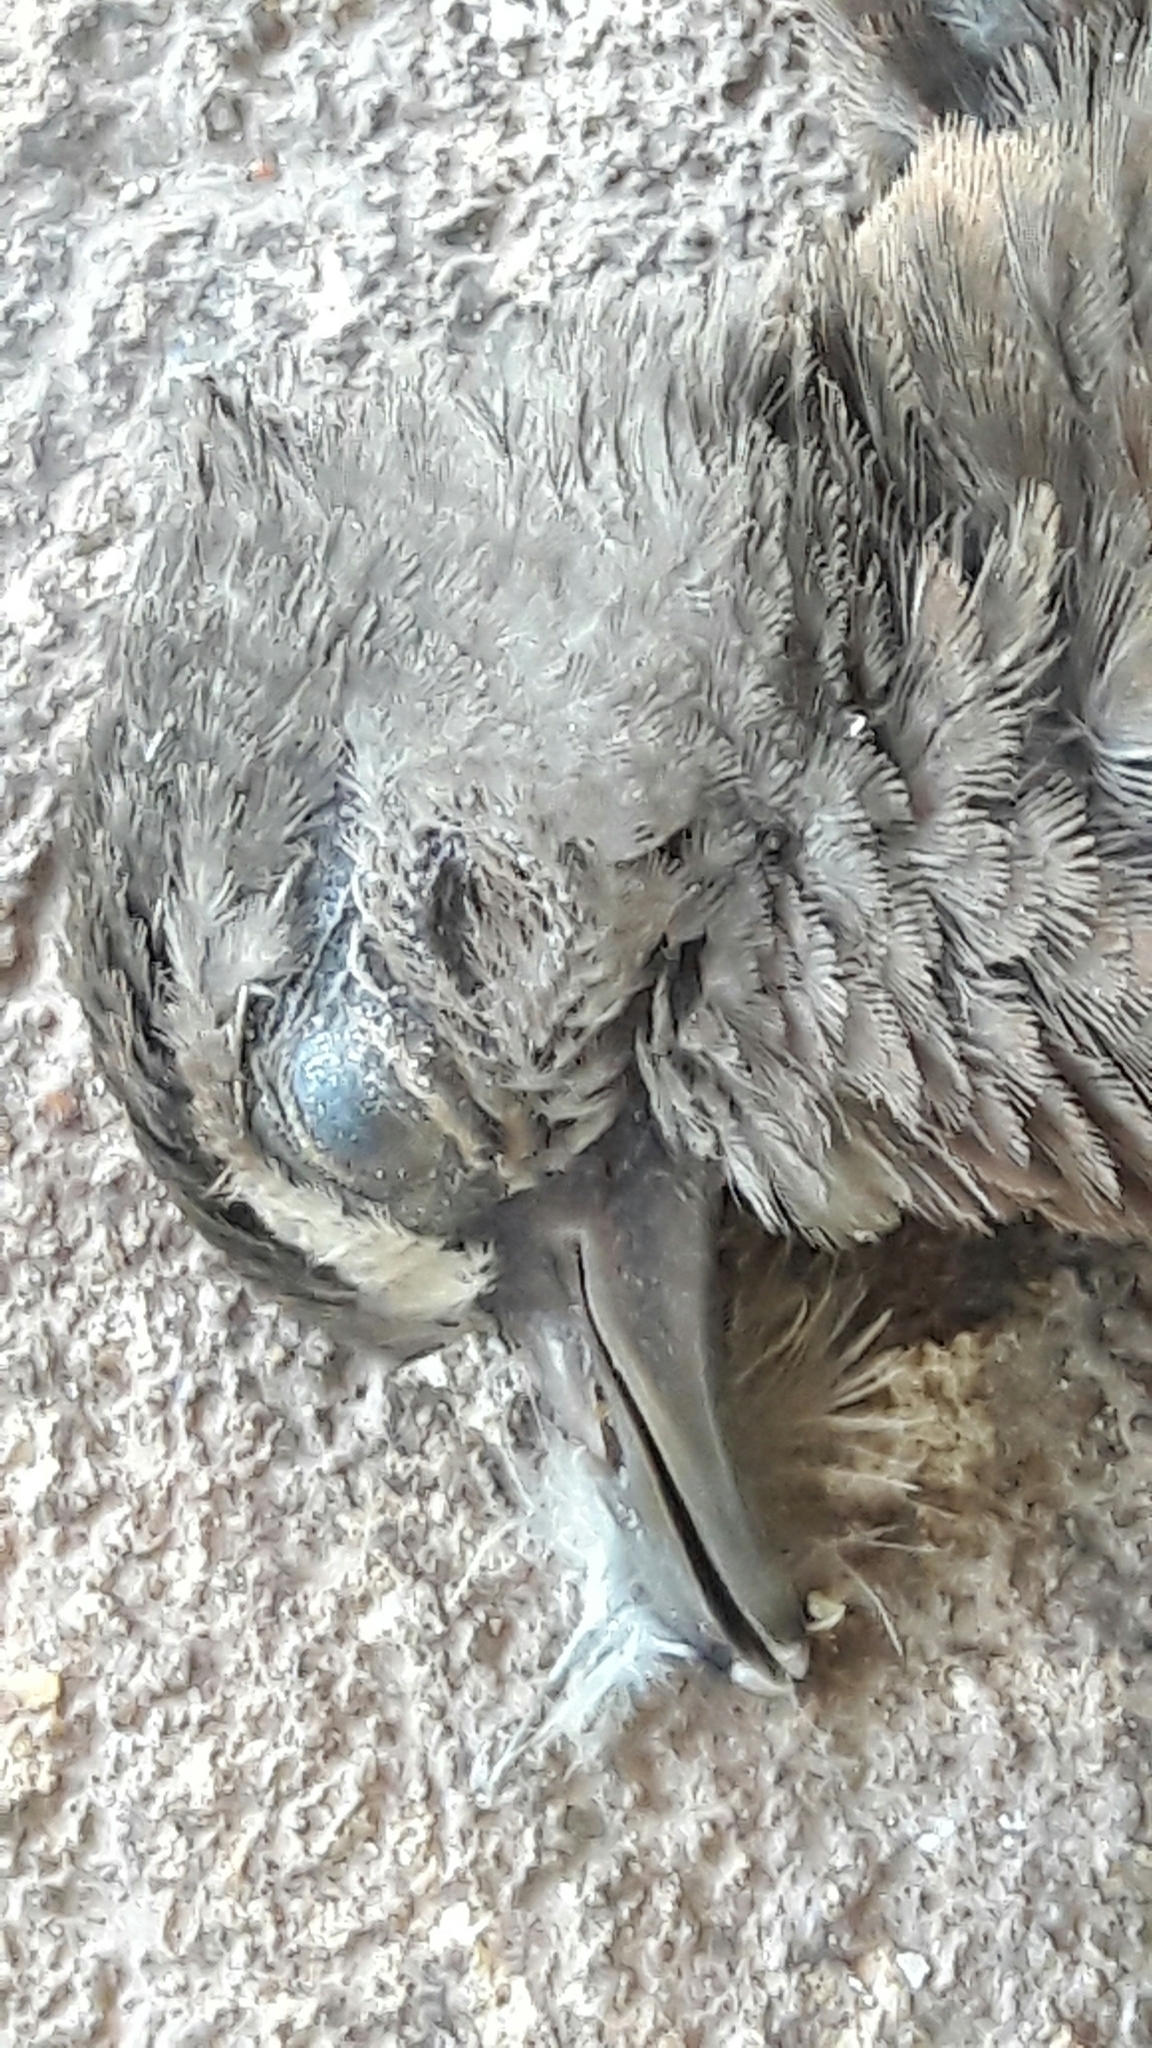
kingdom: Animalia
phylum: Chordata
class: Aves
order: Columbiformes
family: Columbidae
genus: Columbina
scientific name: Columbina talpacoti
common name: Ruddy ground dove
